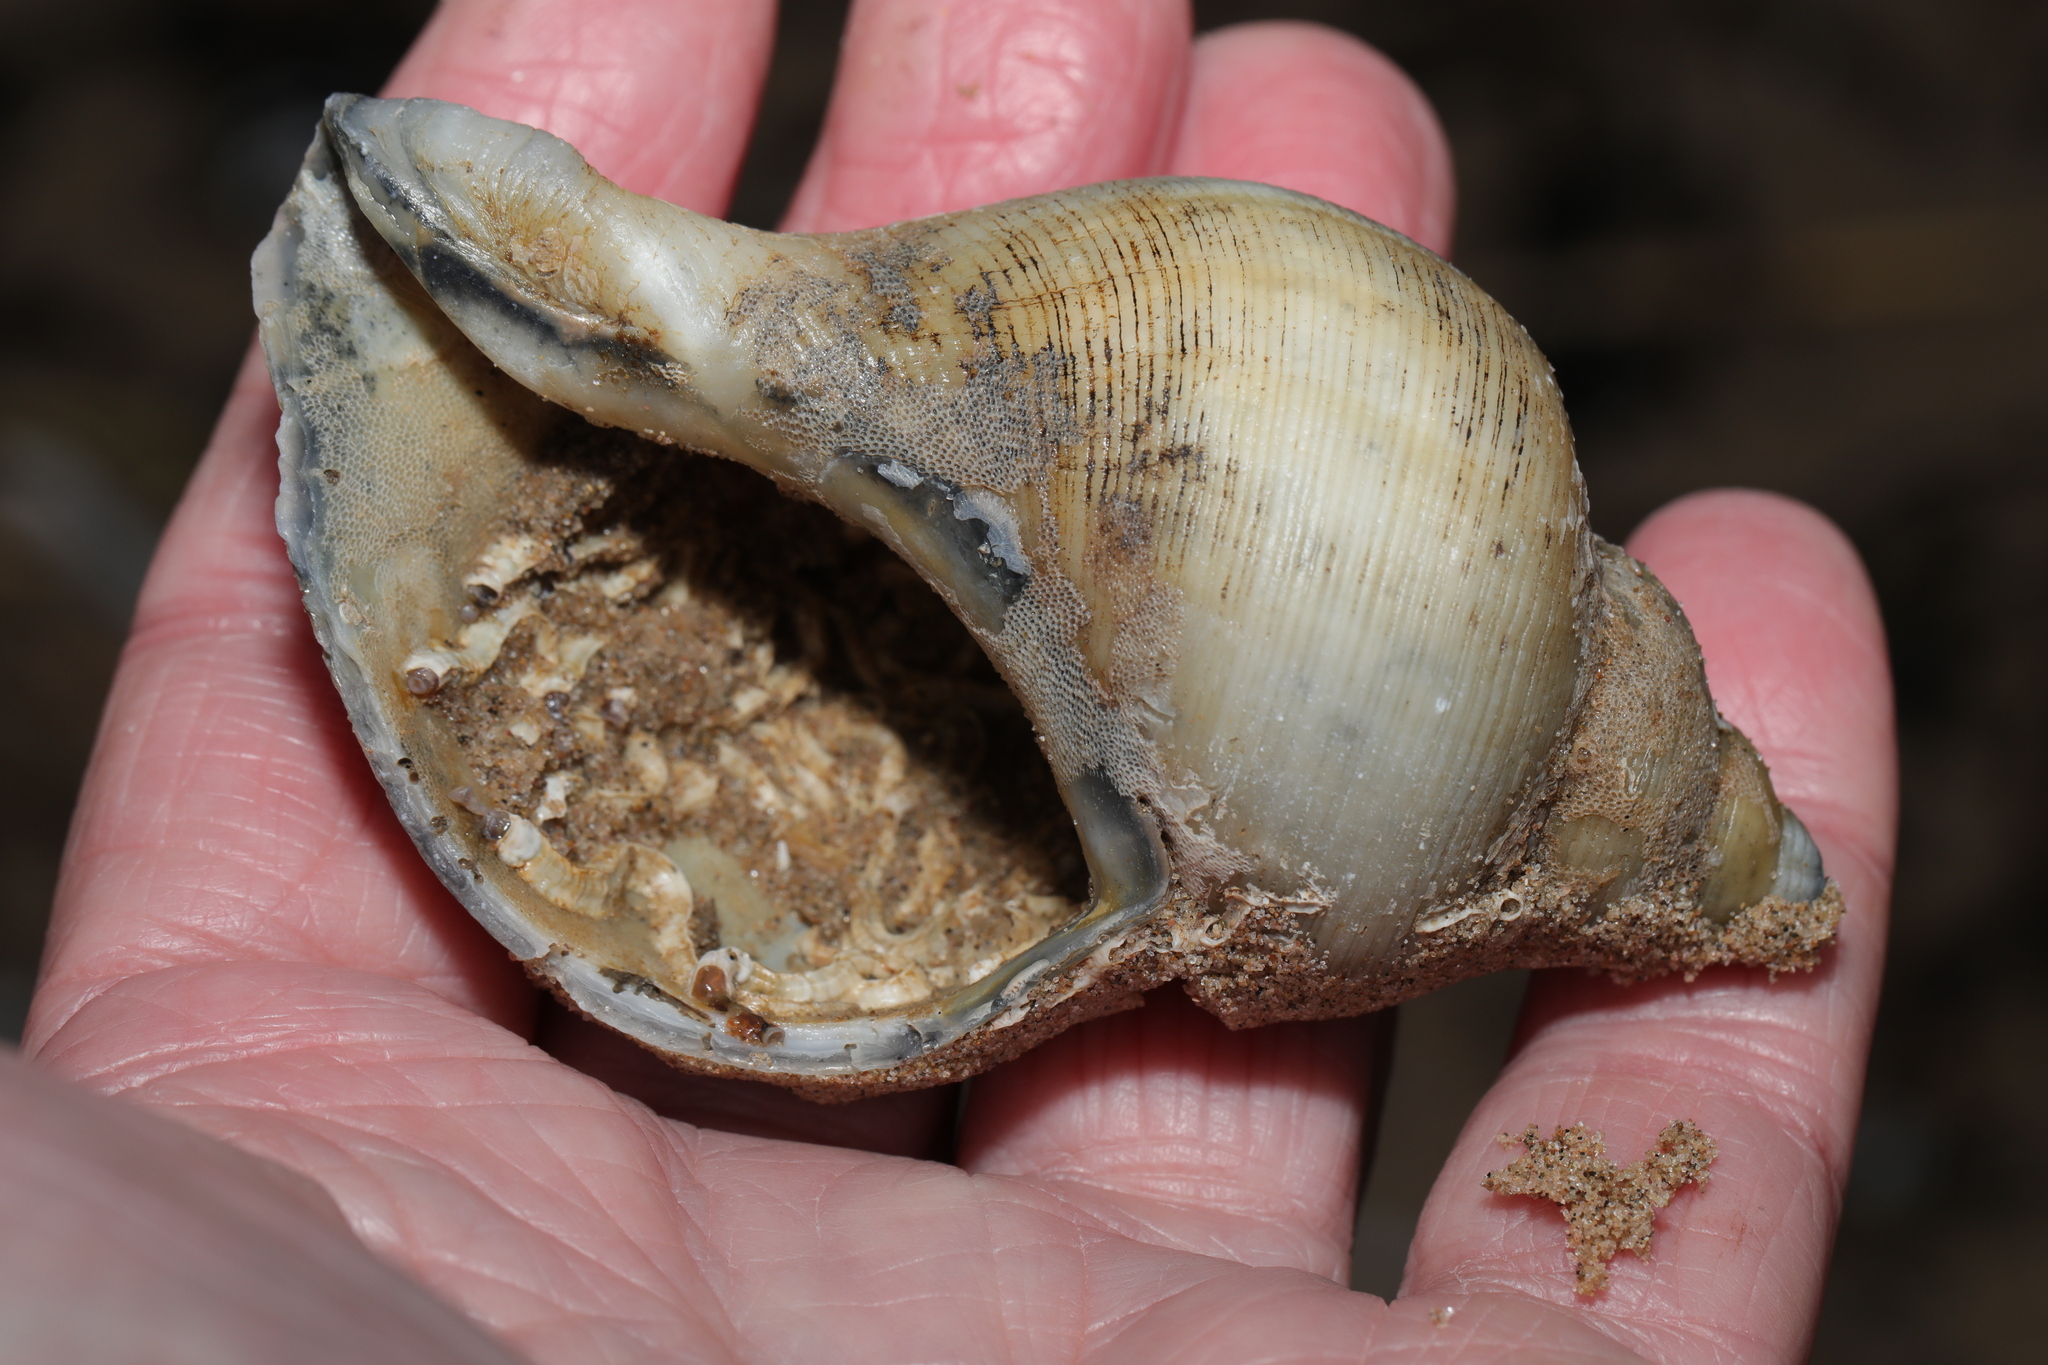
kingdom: Animalia
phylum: Mollusca
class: Gastropoda
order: Neogastropoda
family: Buccinidae
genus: Neptunea
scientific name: Neptunea antiqua
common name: Buckie
